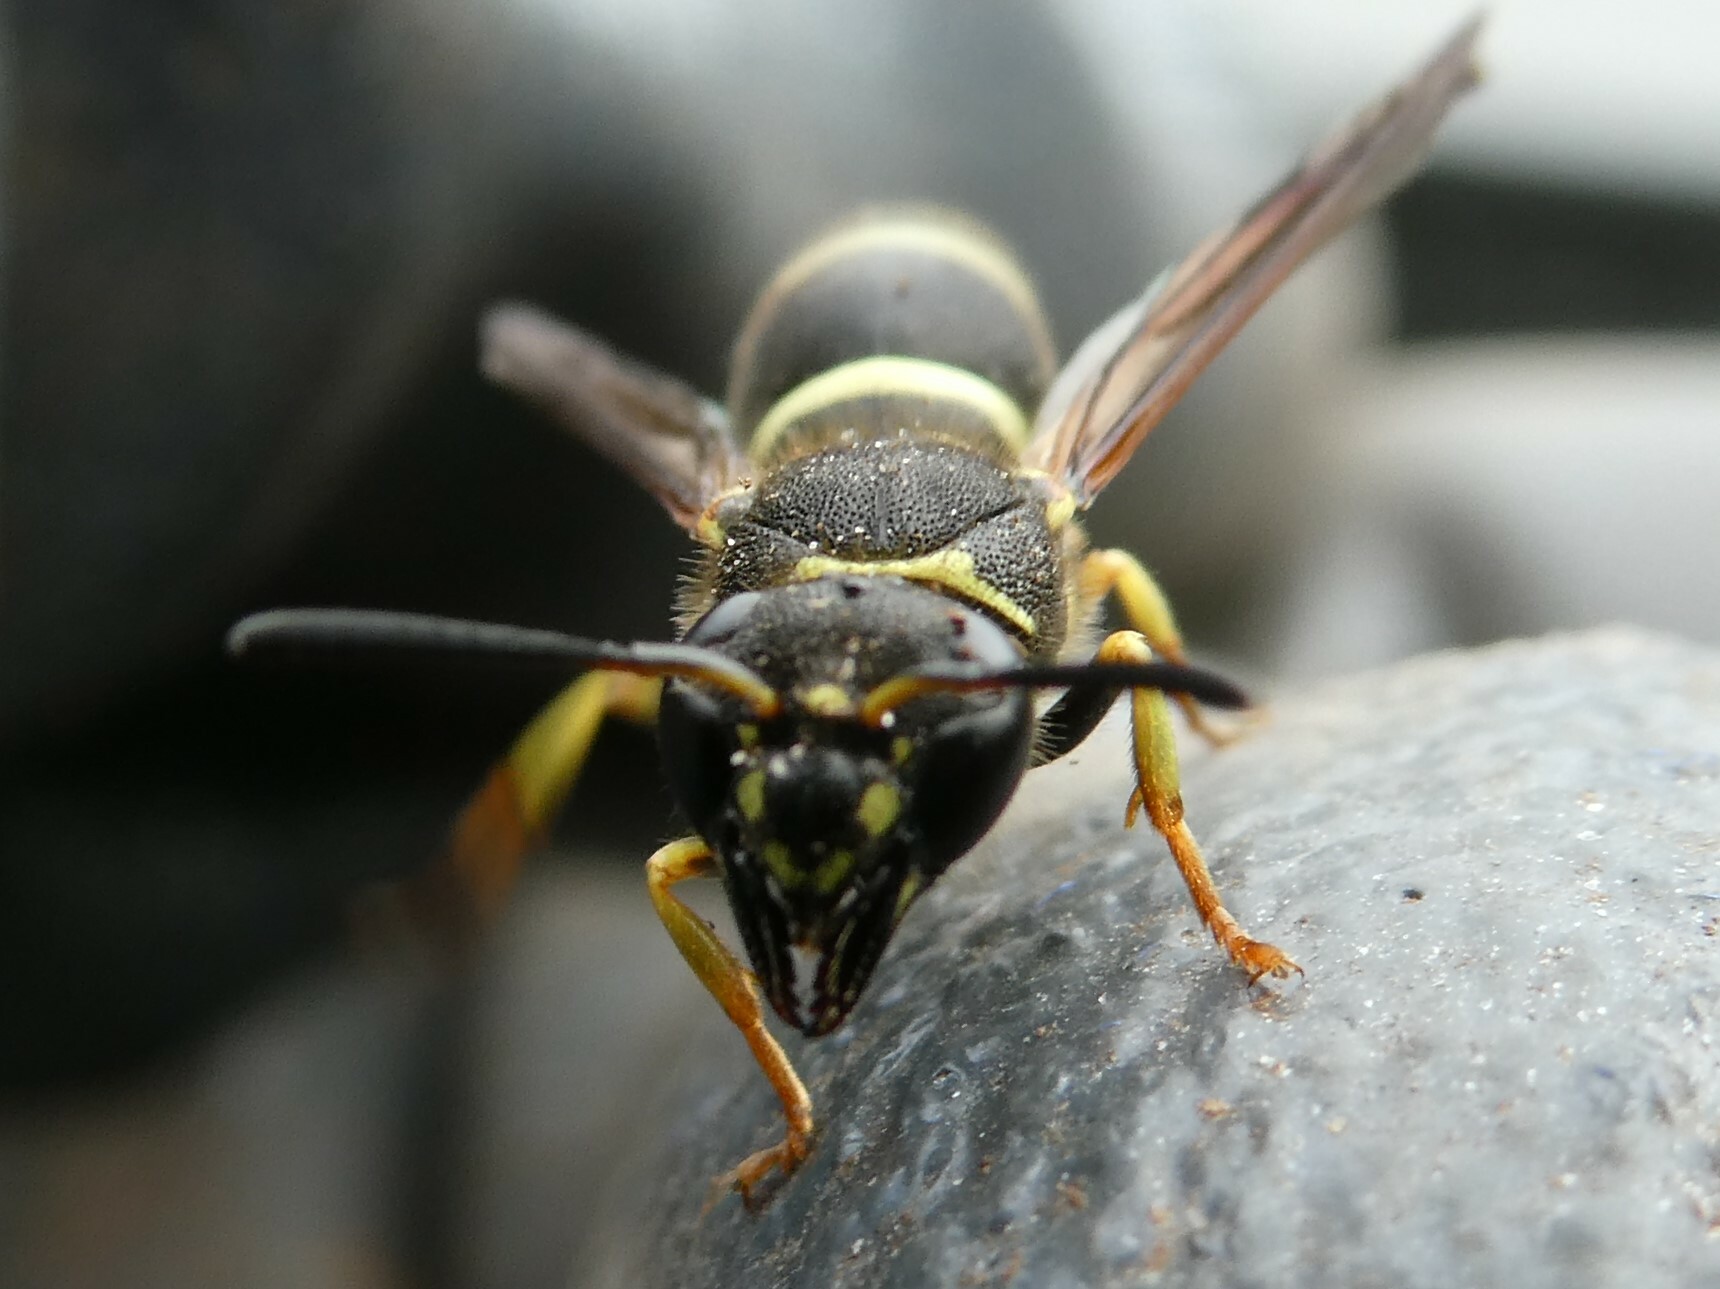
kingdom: Animalia
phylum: Arthropoda
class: Insecta
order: Hymenoptera
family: Vespidae
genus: Ancistrocerus
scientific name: Ancistrocerus catskill
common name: Vespid wasp
